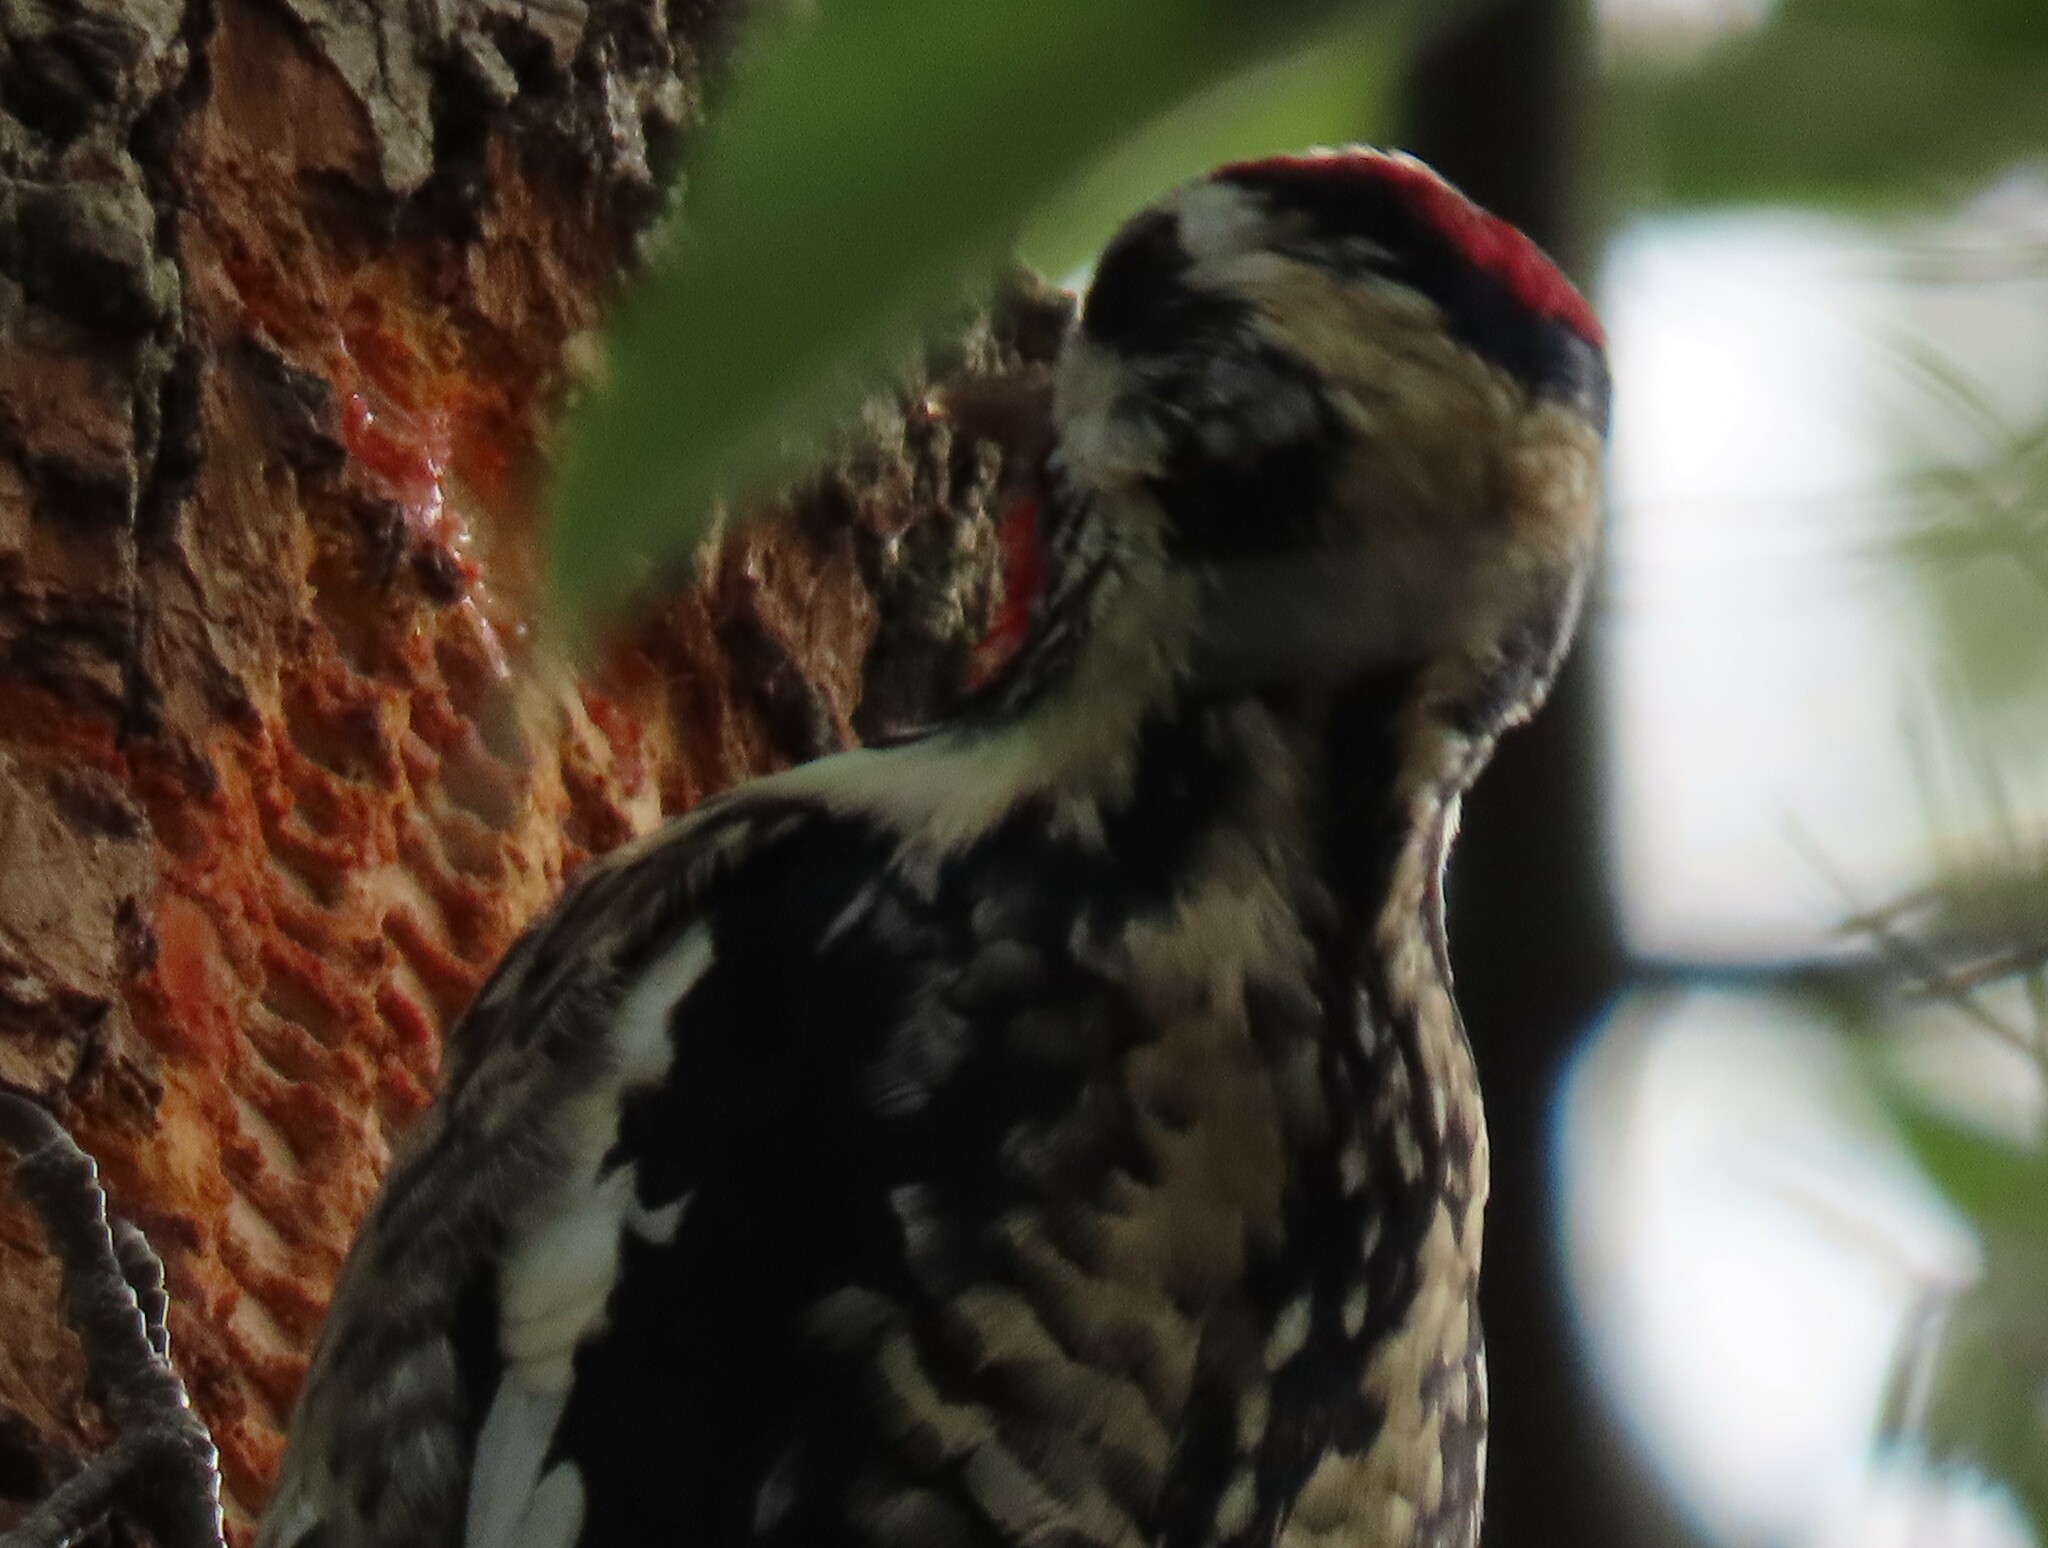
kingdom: Animalia
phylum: Chordata
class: Aves
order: Piciformes
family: Picidae
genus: Sphyrapicus
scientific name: Sphyrapicus varius
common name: Yellow-bellied sapsucker
